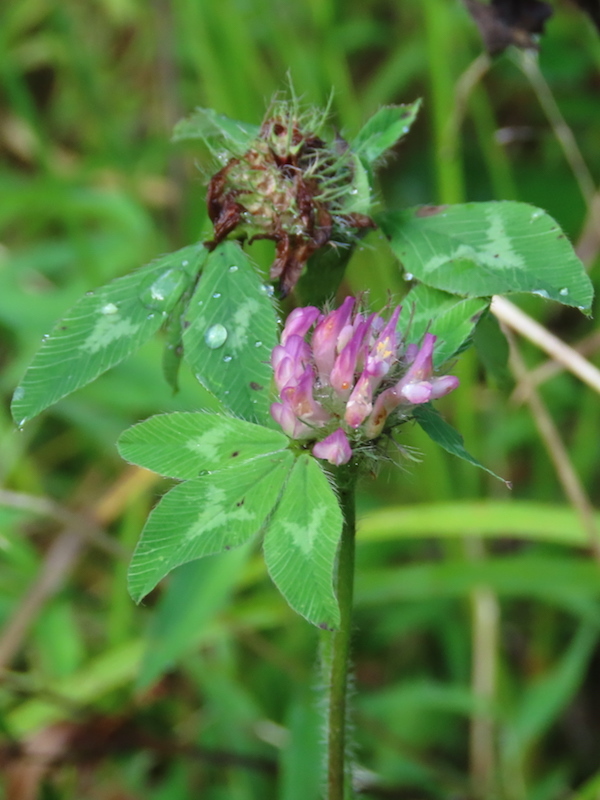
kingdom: Plantae
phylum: Tracheophyta
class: Magnoliopsida
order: Fabales
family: Fabaceae
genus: Trifolium
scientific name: Trifolium pratense
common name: Red clover
